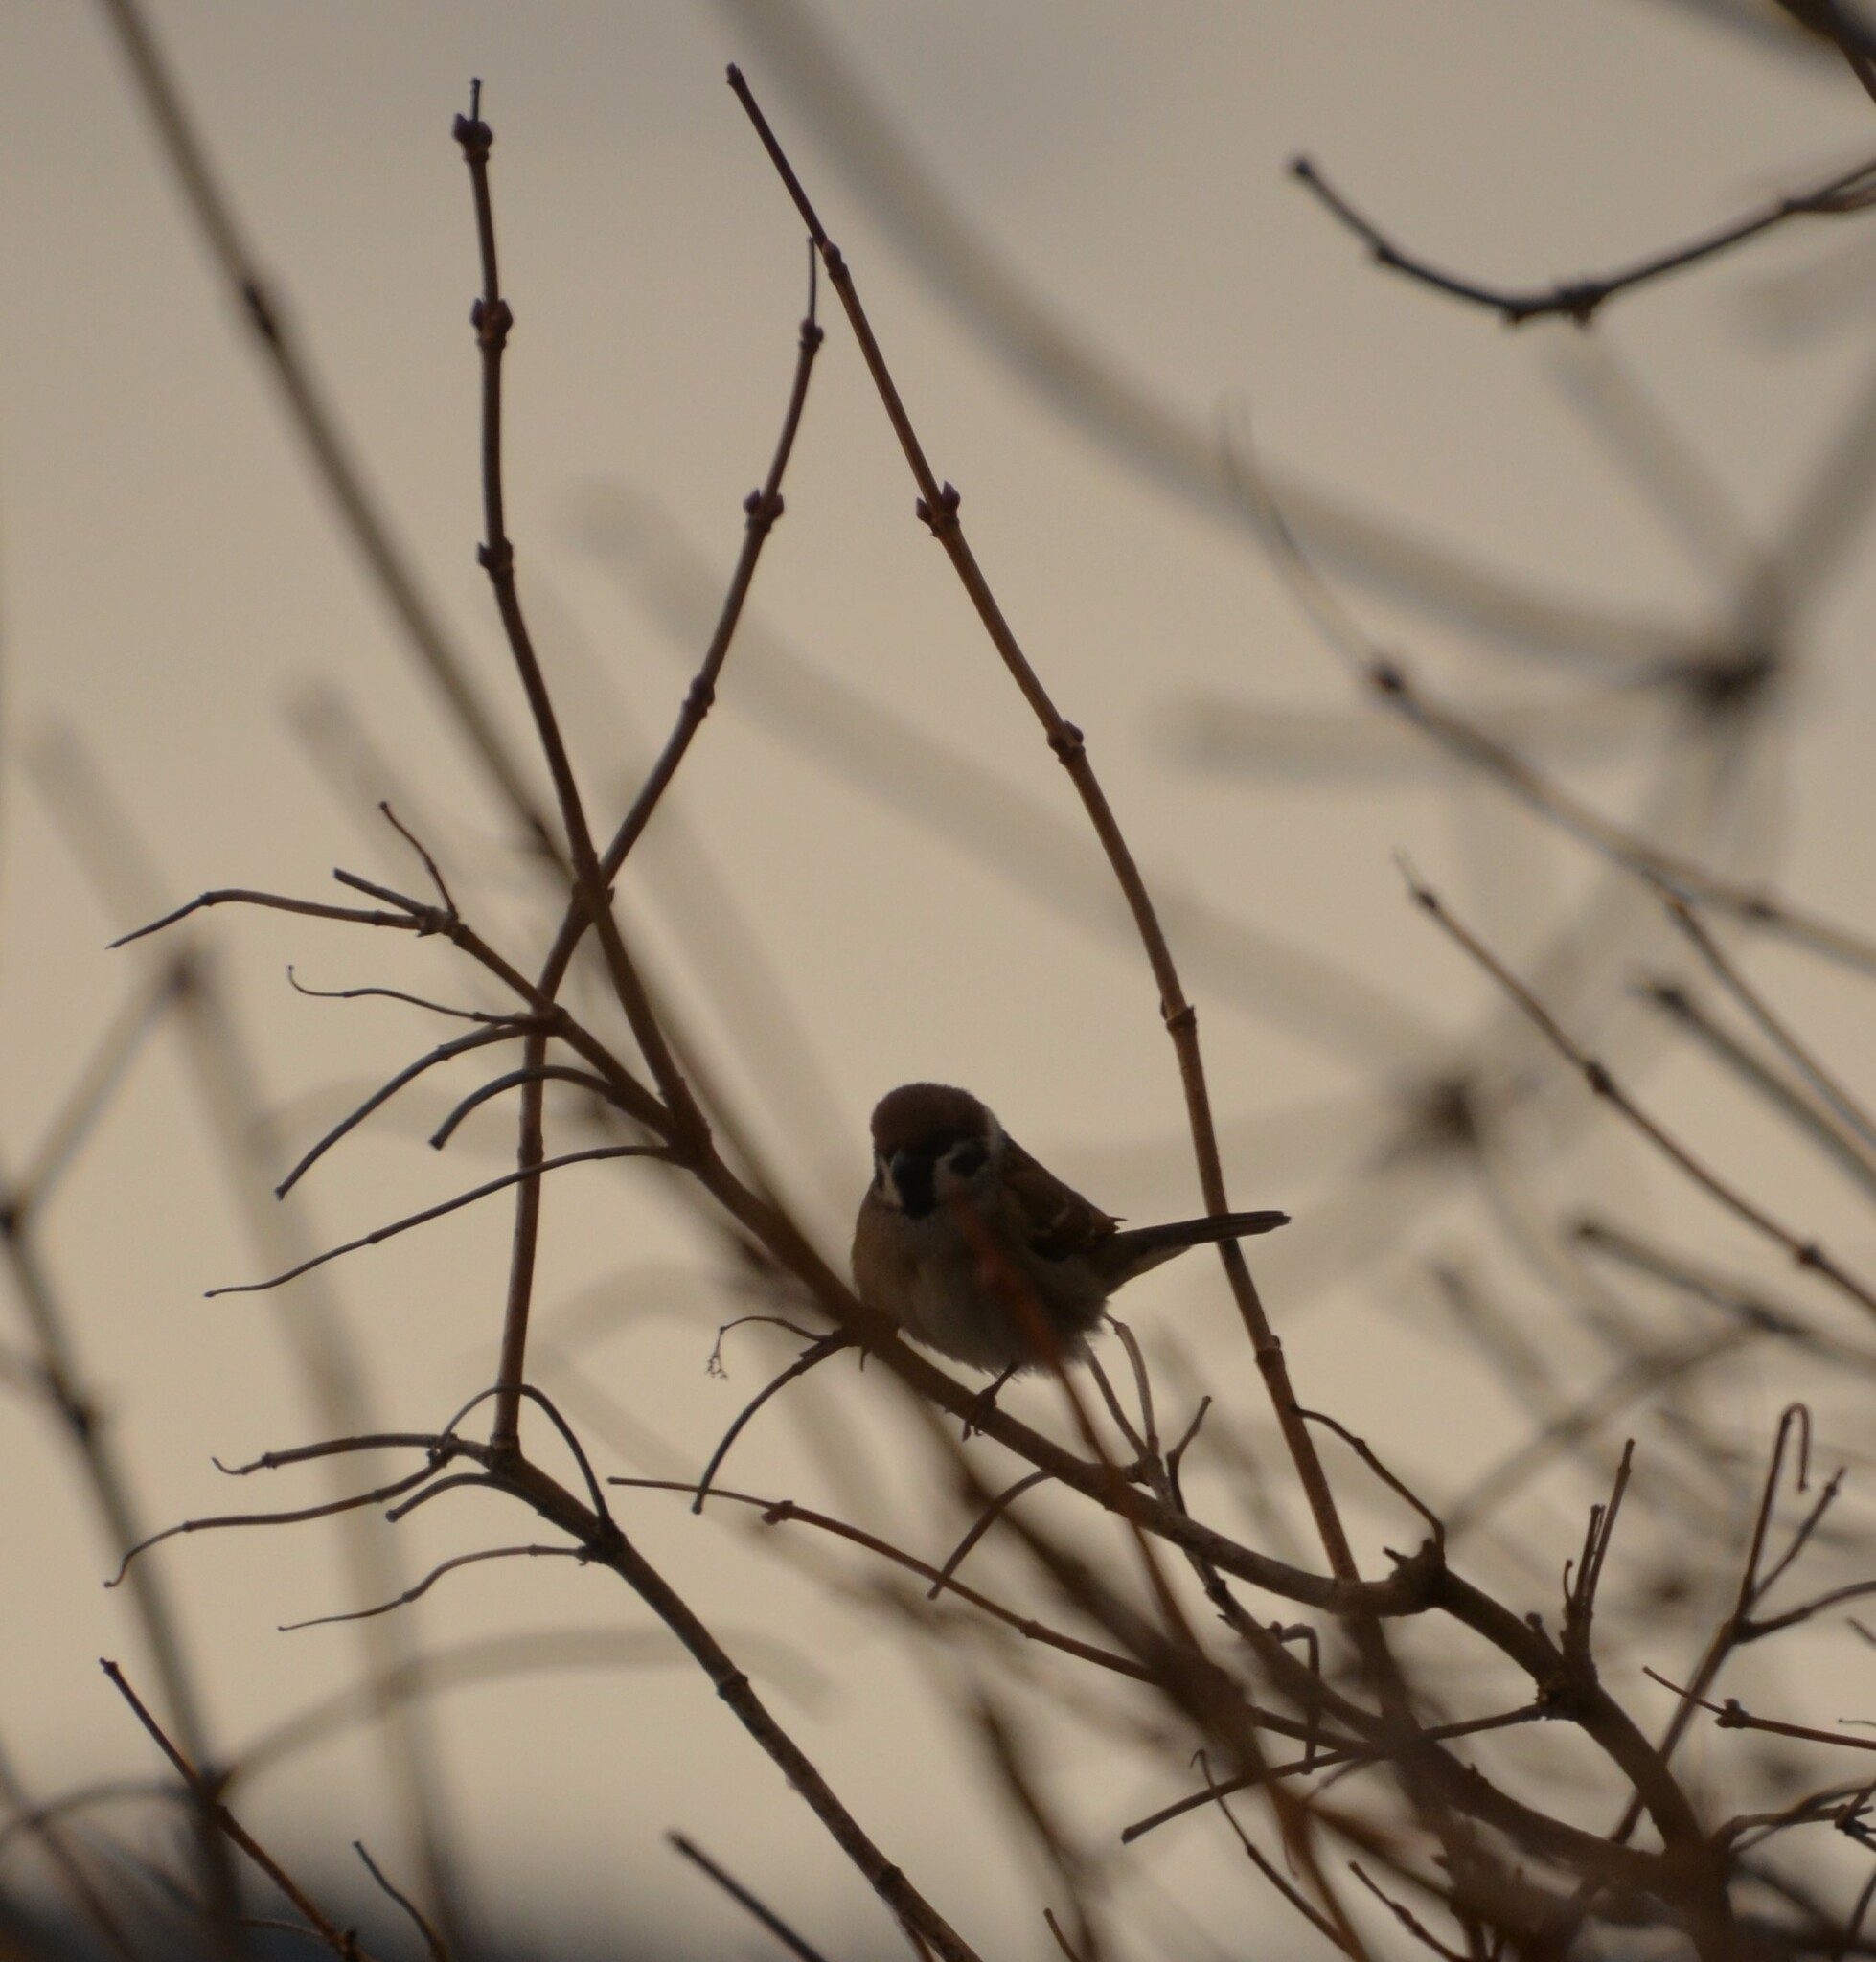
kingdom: Animalia
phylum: Chordata
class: Aves
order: Passeriformes
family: Passeridae
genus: Passer
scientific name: Passer montanus
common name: Eurasian tree sparrow
